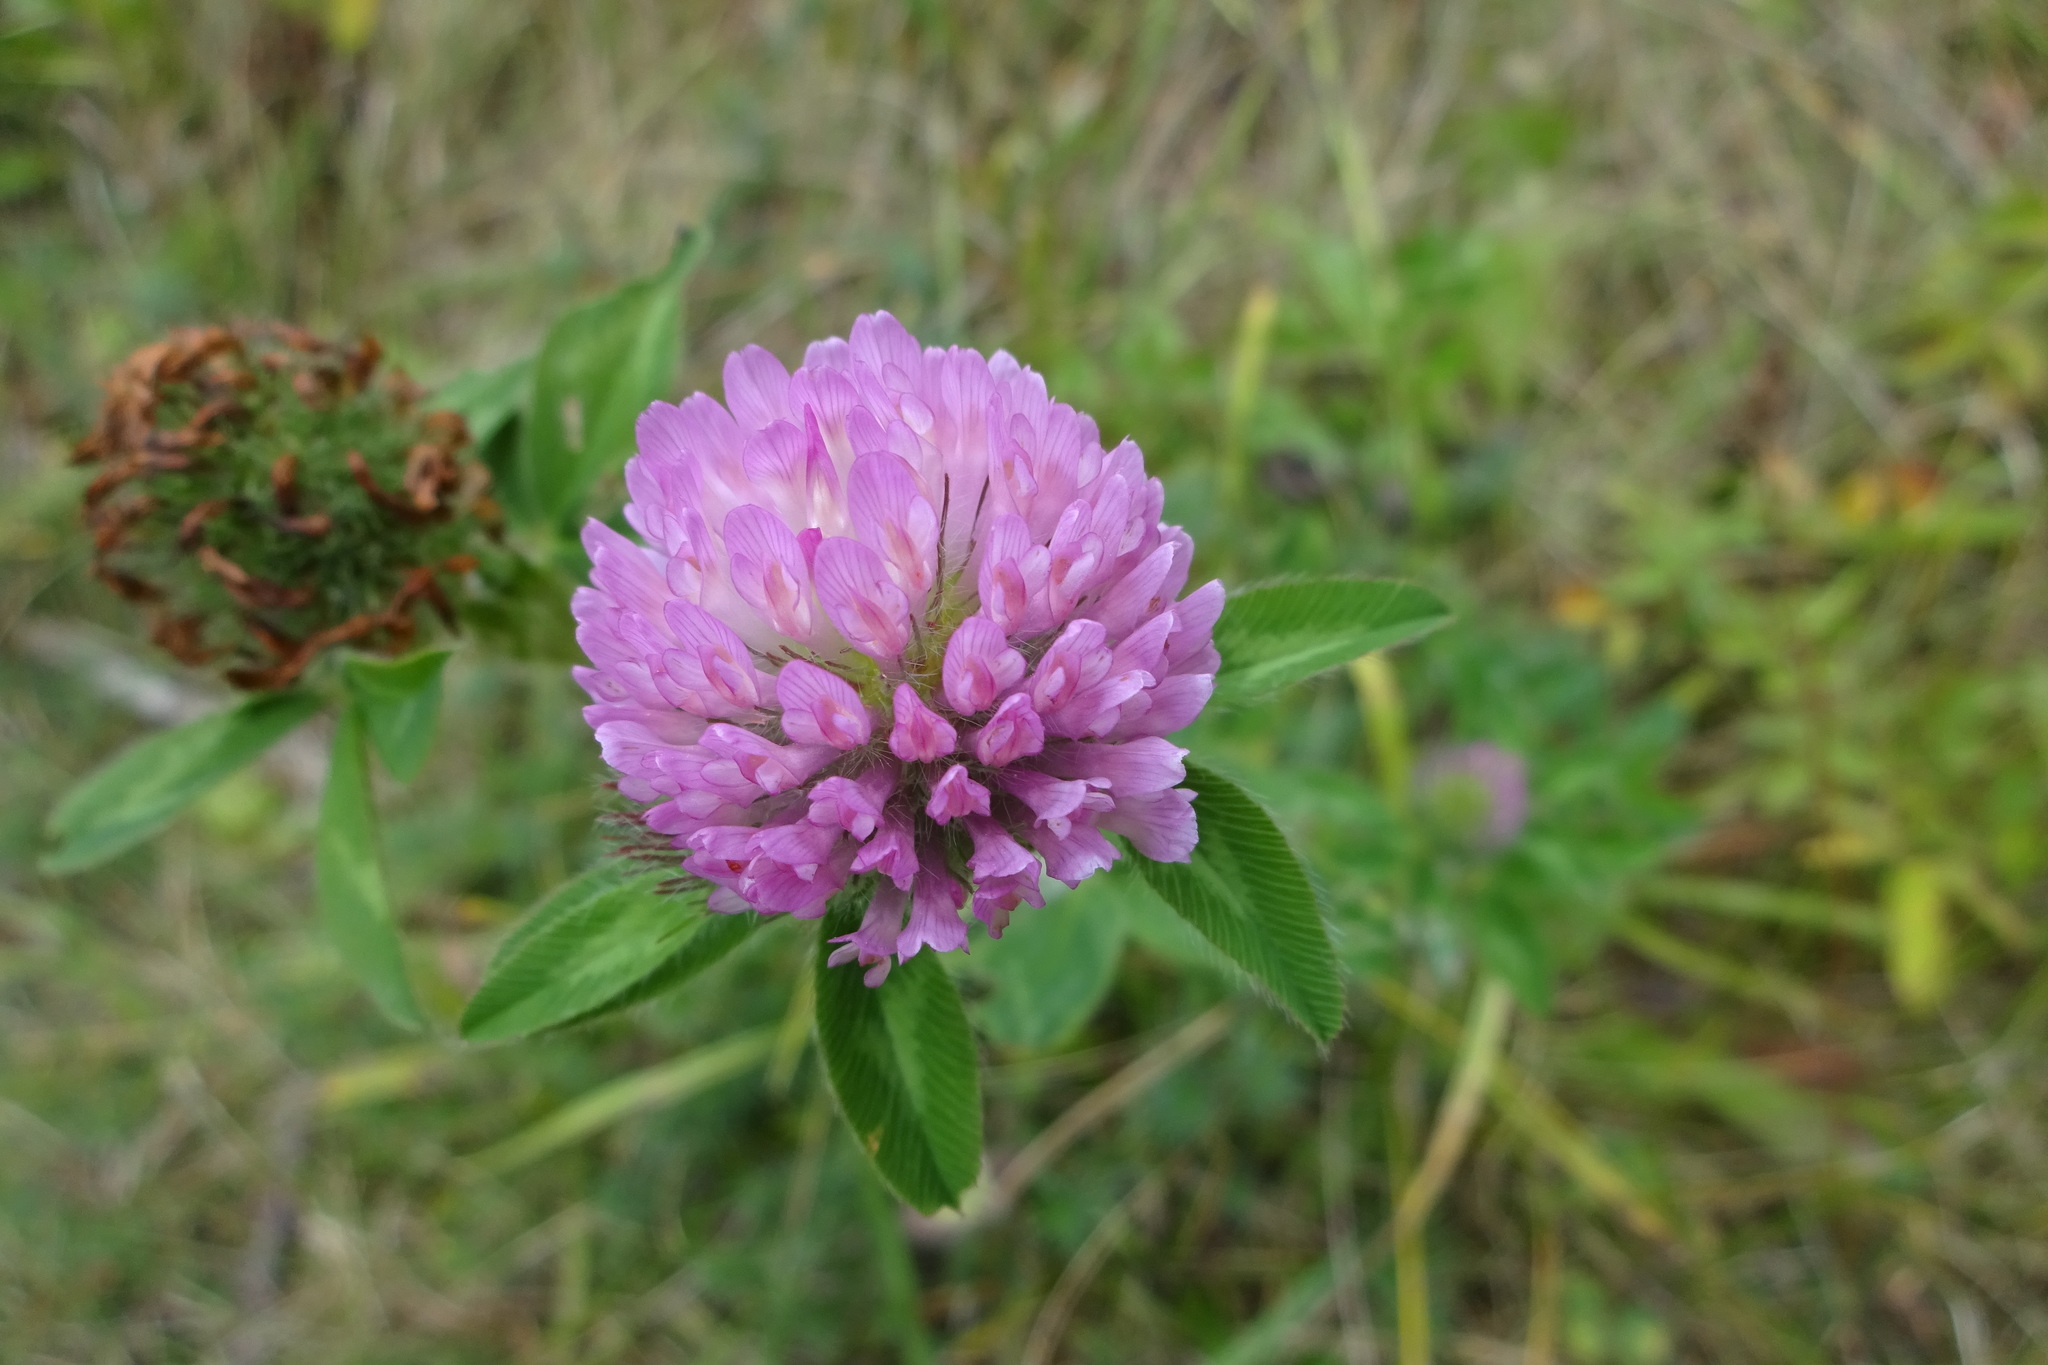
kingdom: Plantae
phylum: Tracheophyta
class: Magnoliopsida
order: Fabales
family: Fabaceae
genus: Trifolium
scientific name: Trifolium pratense
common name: Red clover
